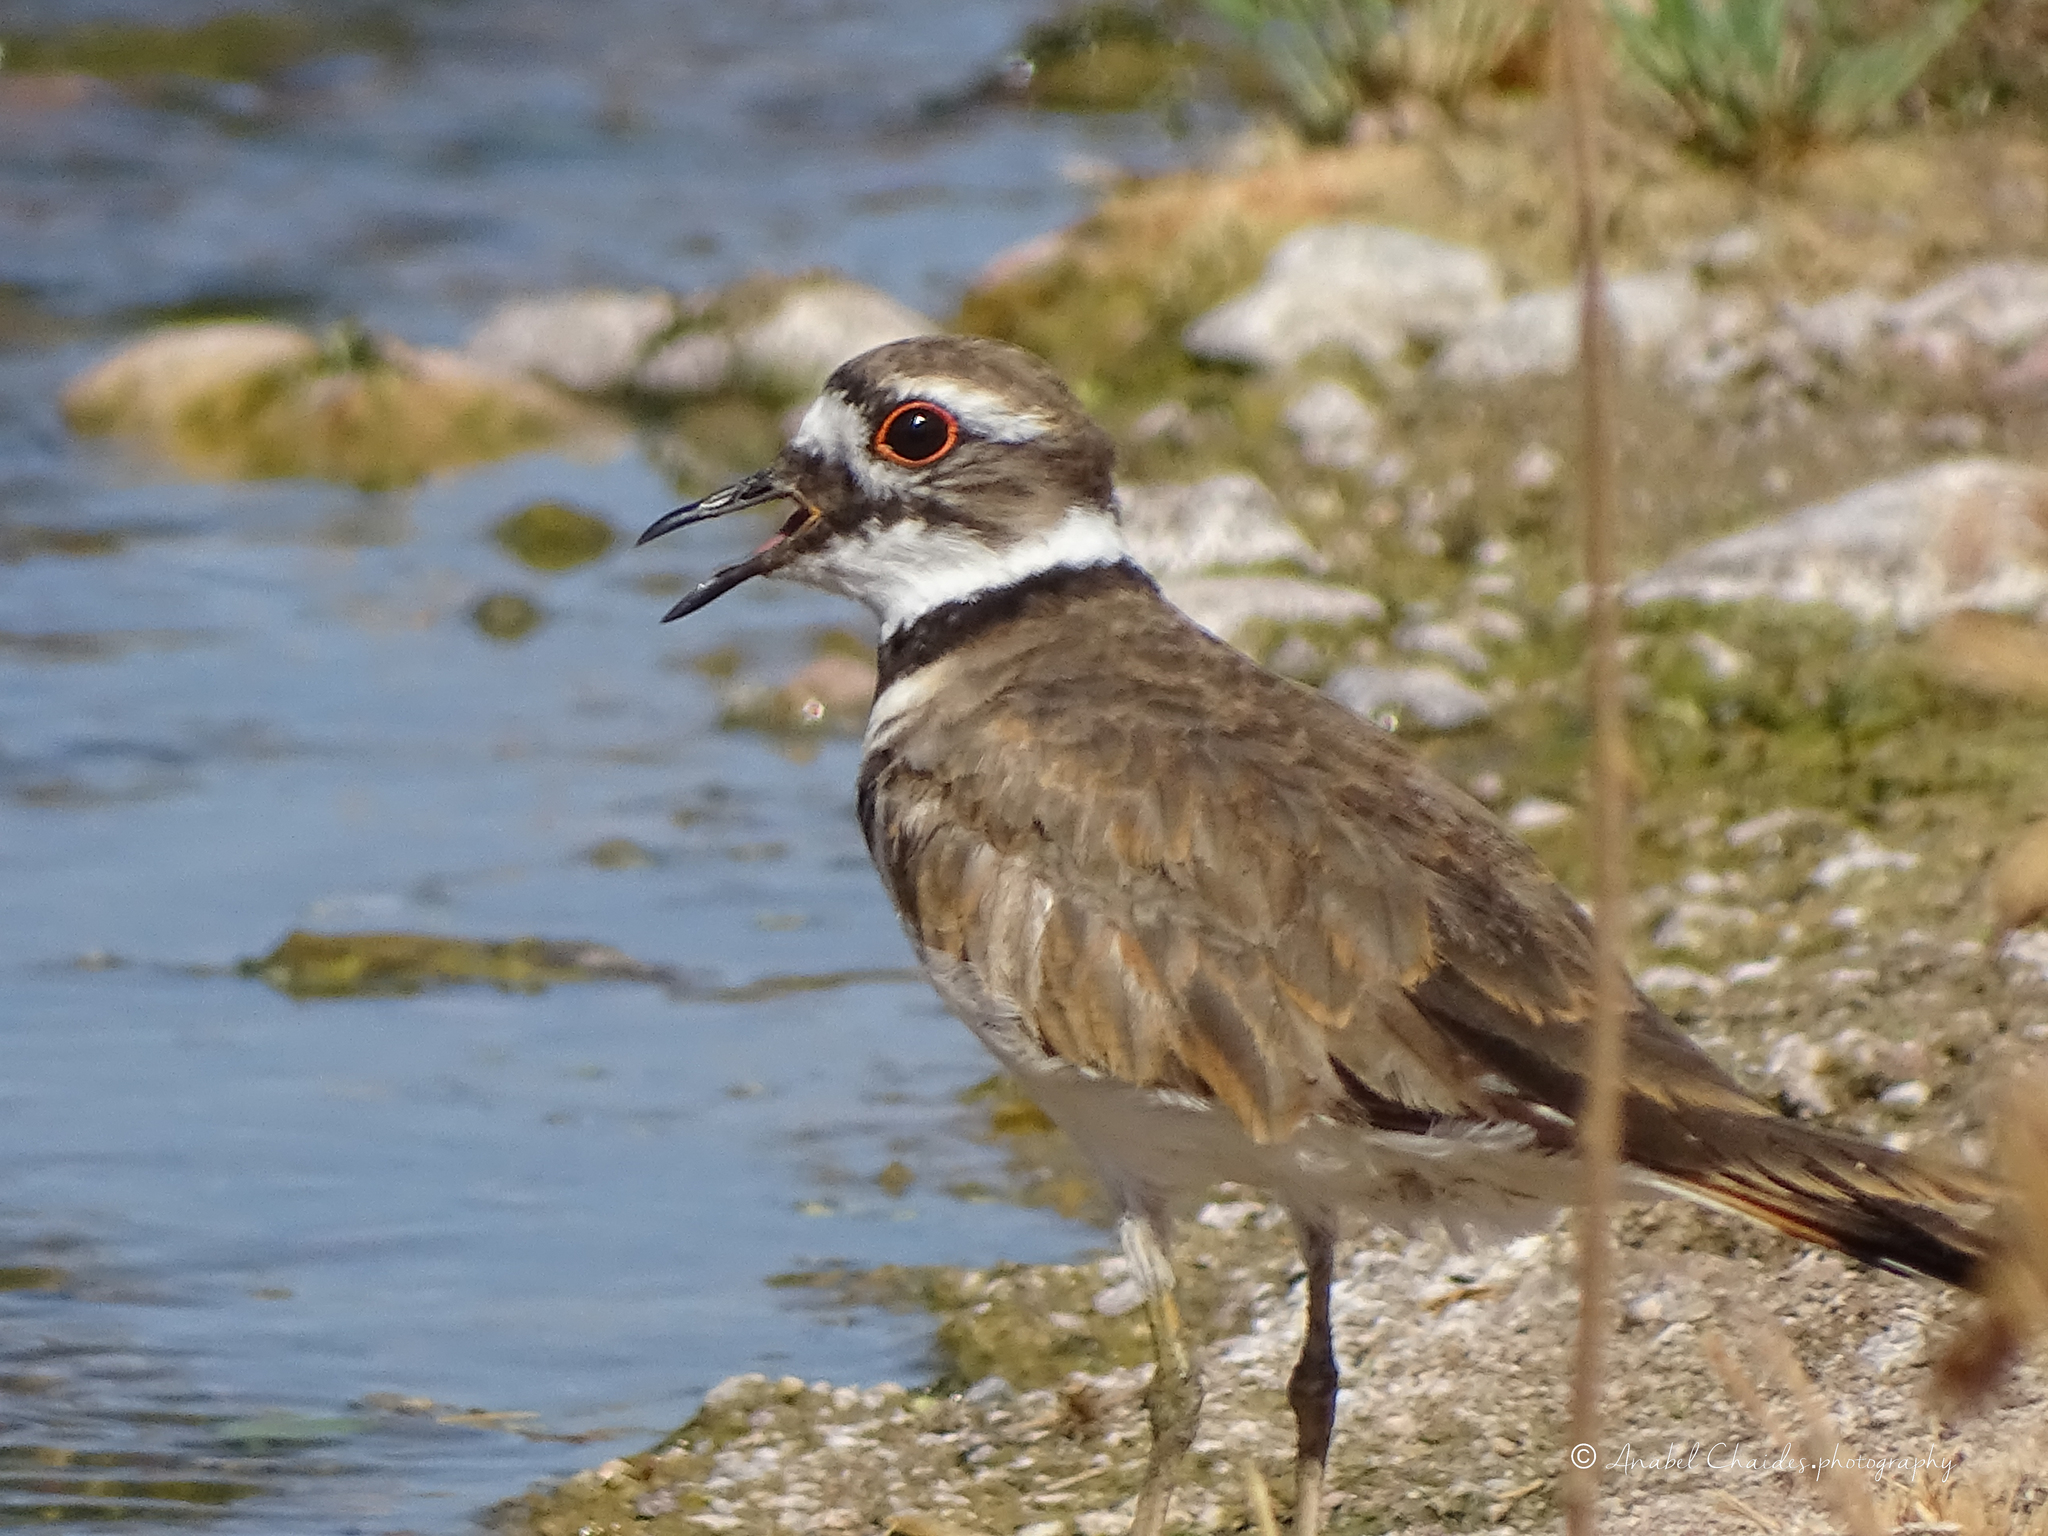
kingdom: Animalia
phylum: Chordata
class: Aves
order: Charadriiformes
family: Charadriidae
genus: Charadrius
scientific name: Charadrius vociferus
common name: Killdeer
